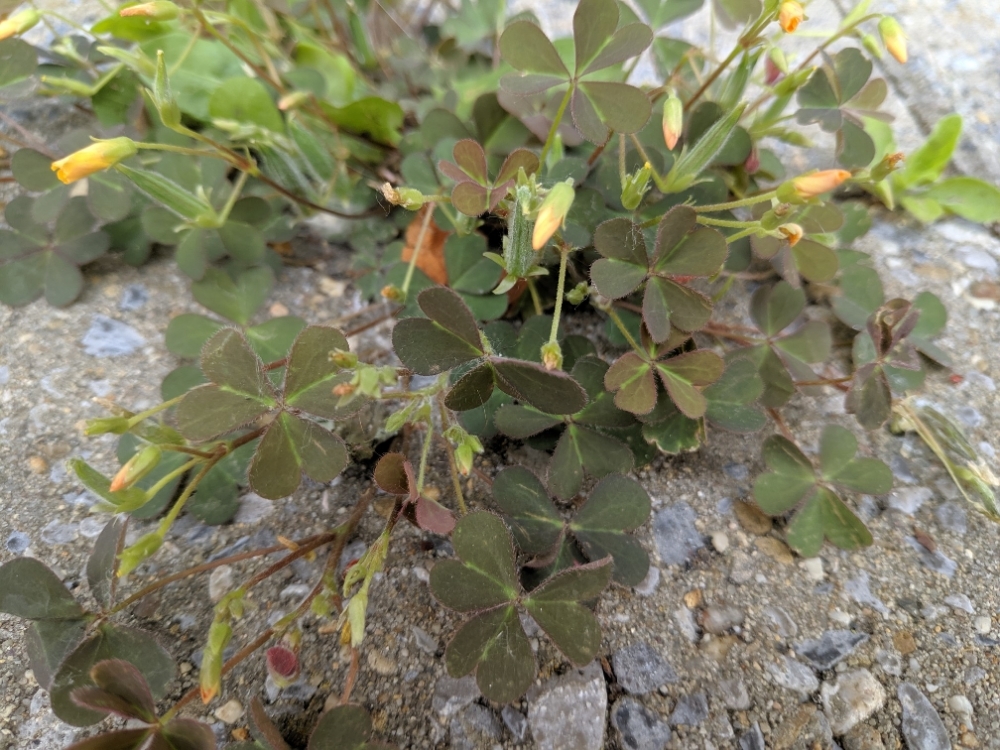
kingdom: Plantae
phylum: Tracheophyta
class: Magnoliopsida
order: Oxalidales
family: Oxalidaceae
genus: Oxalis
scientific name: Oxalis corniculata
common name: Procumbent yellow-sorrel
